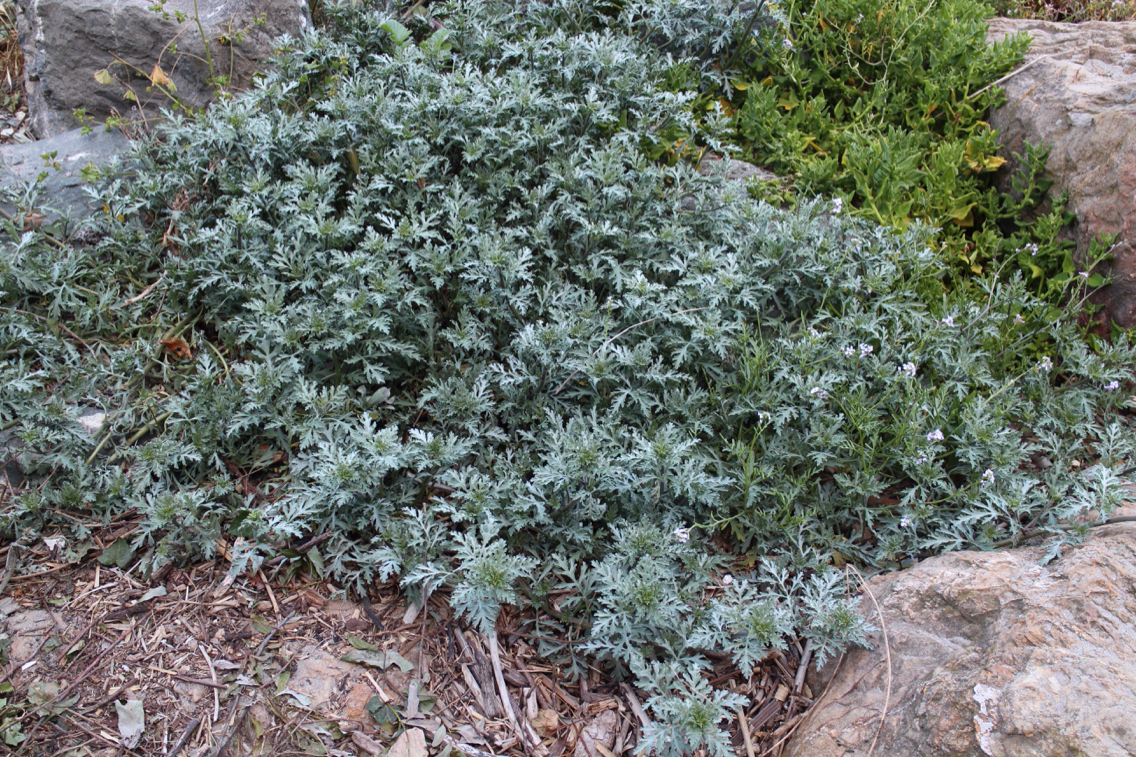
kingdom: Plantae
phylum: Tracheophyta
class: Magnoliopsida
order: Asterales
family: Asteraceae
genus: Ambrosia
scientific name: Ambrosia chamissonis
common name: Beachbur
